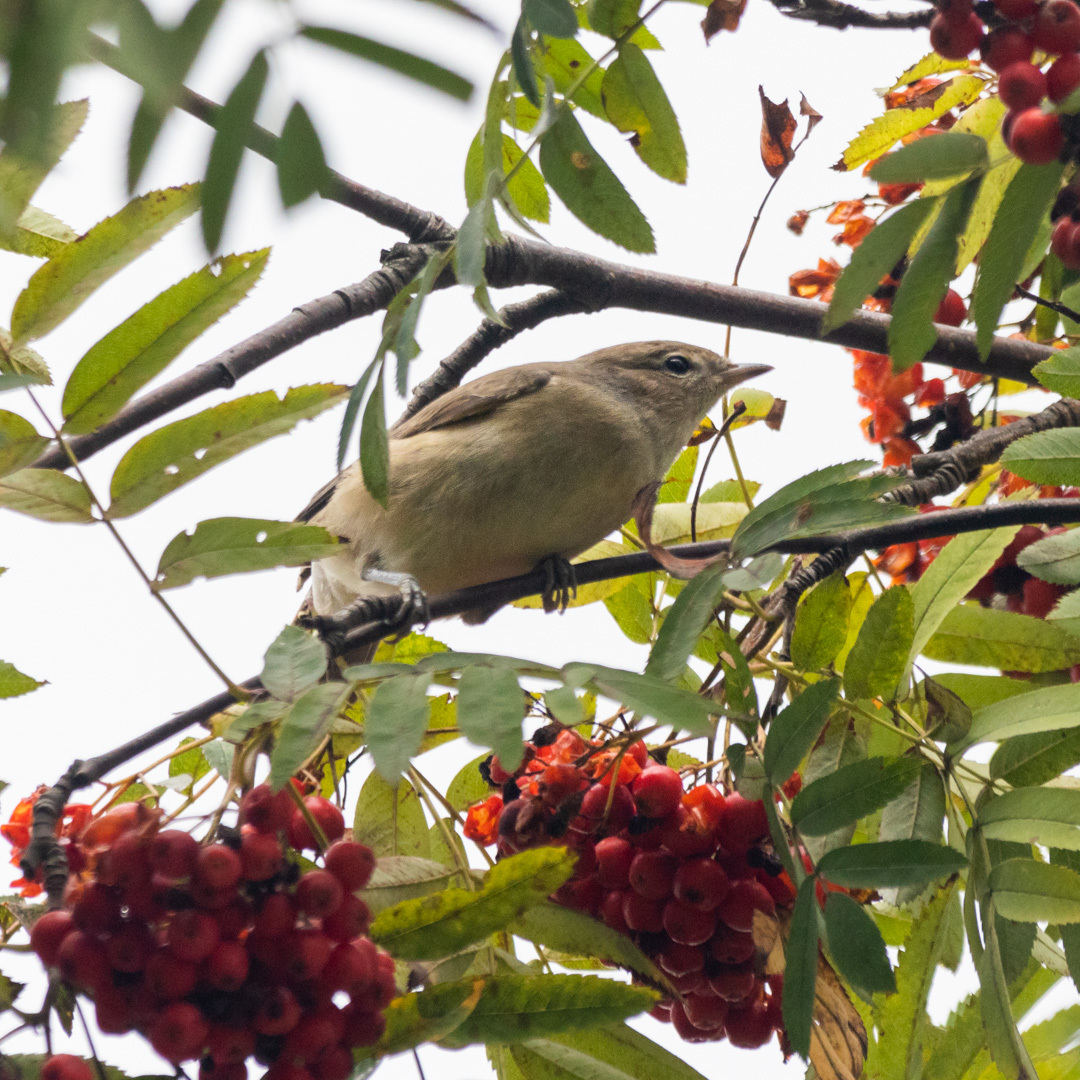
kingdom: Animalia
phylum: Chordata
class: Aves
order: Passeriformes
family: Sylviidae
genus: Sylvia
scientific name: Sylvia borin
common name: Garden warbler
